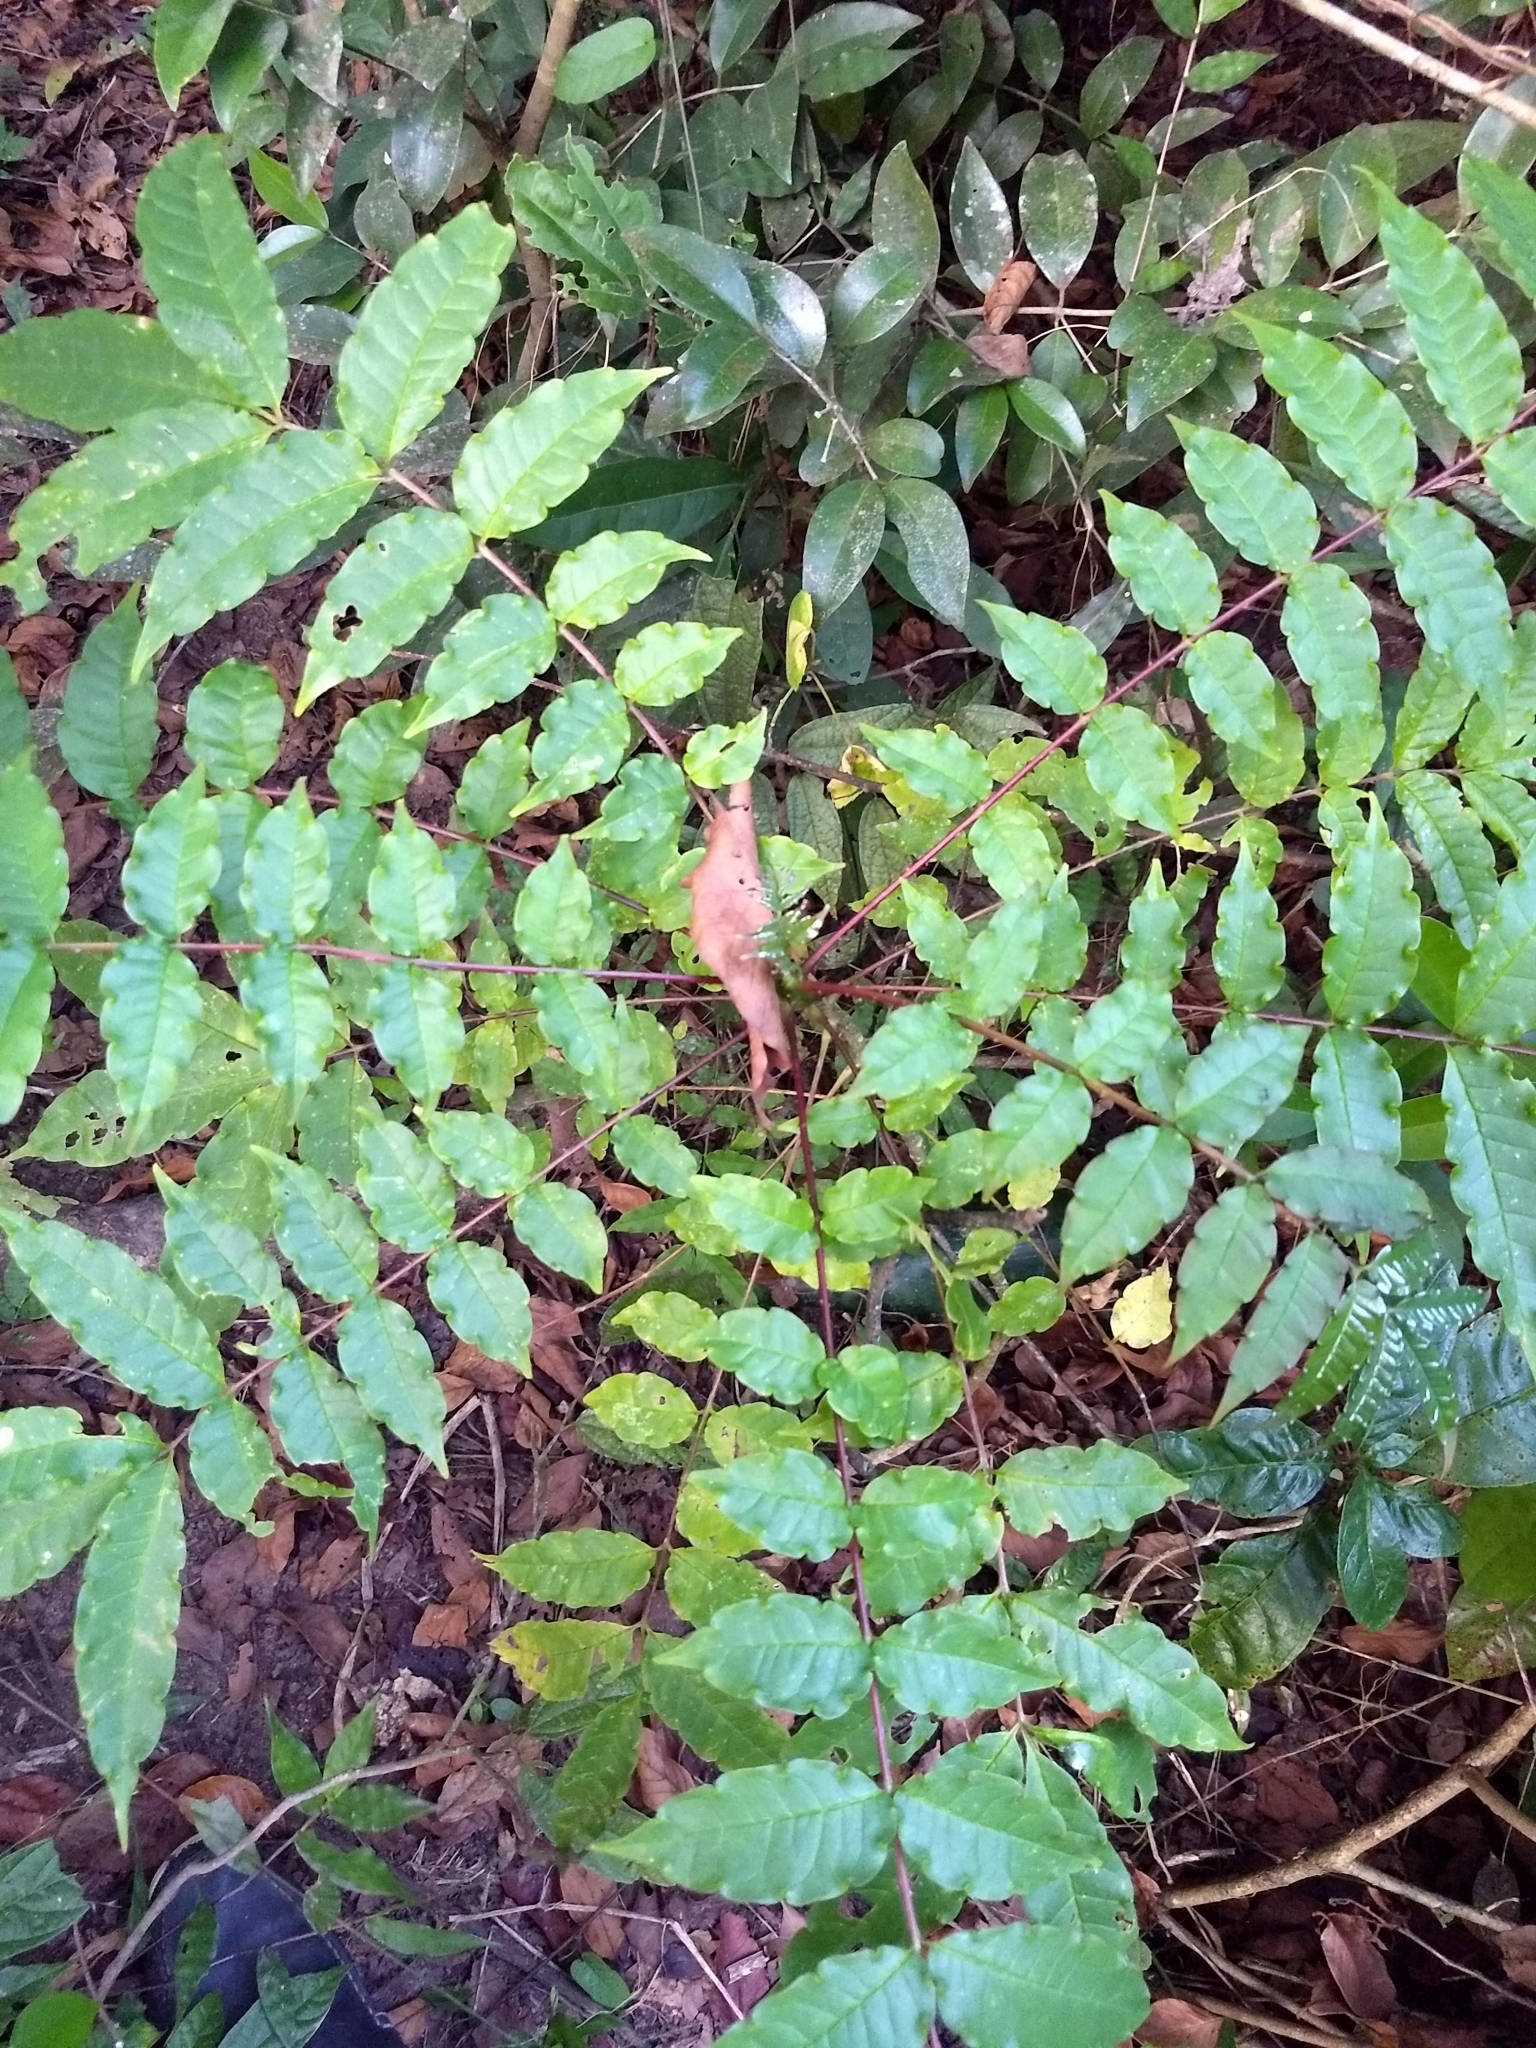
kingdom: Plantae
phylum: Tracheophyta
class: Magnoliopsida
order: Sapindales
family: Rutaceae
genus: Zanthoxylum
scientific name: Zanthoxylum rhetsa
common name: Indian ivy-rue
